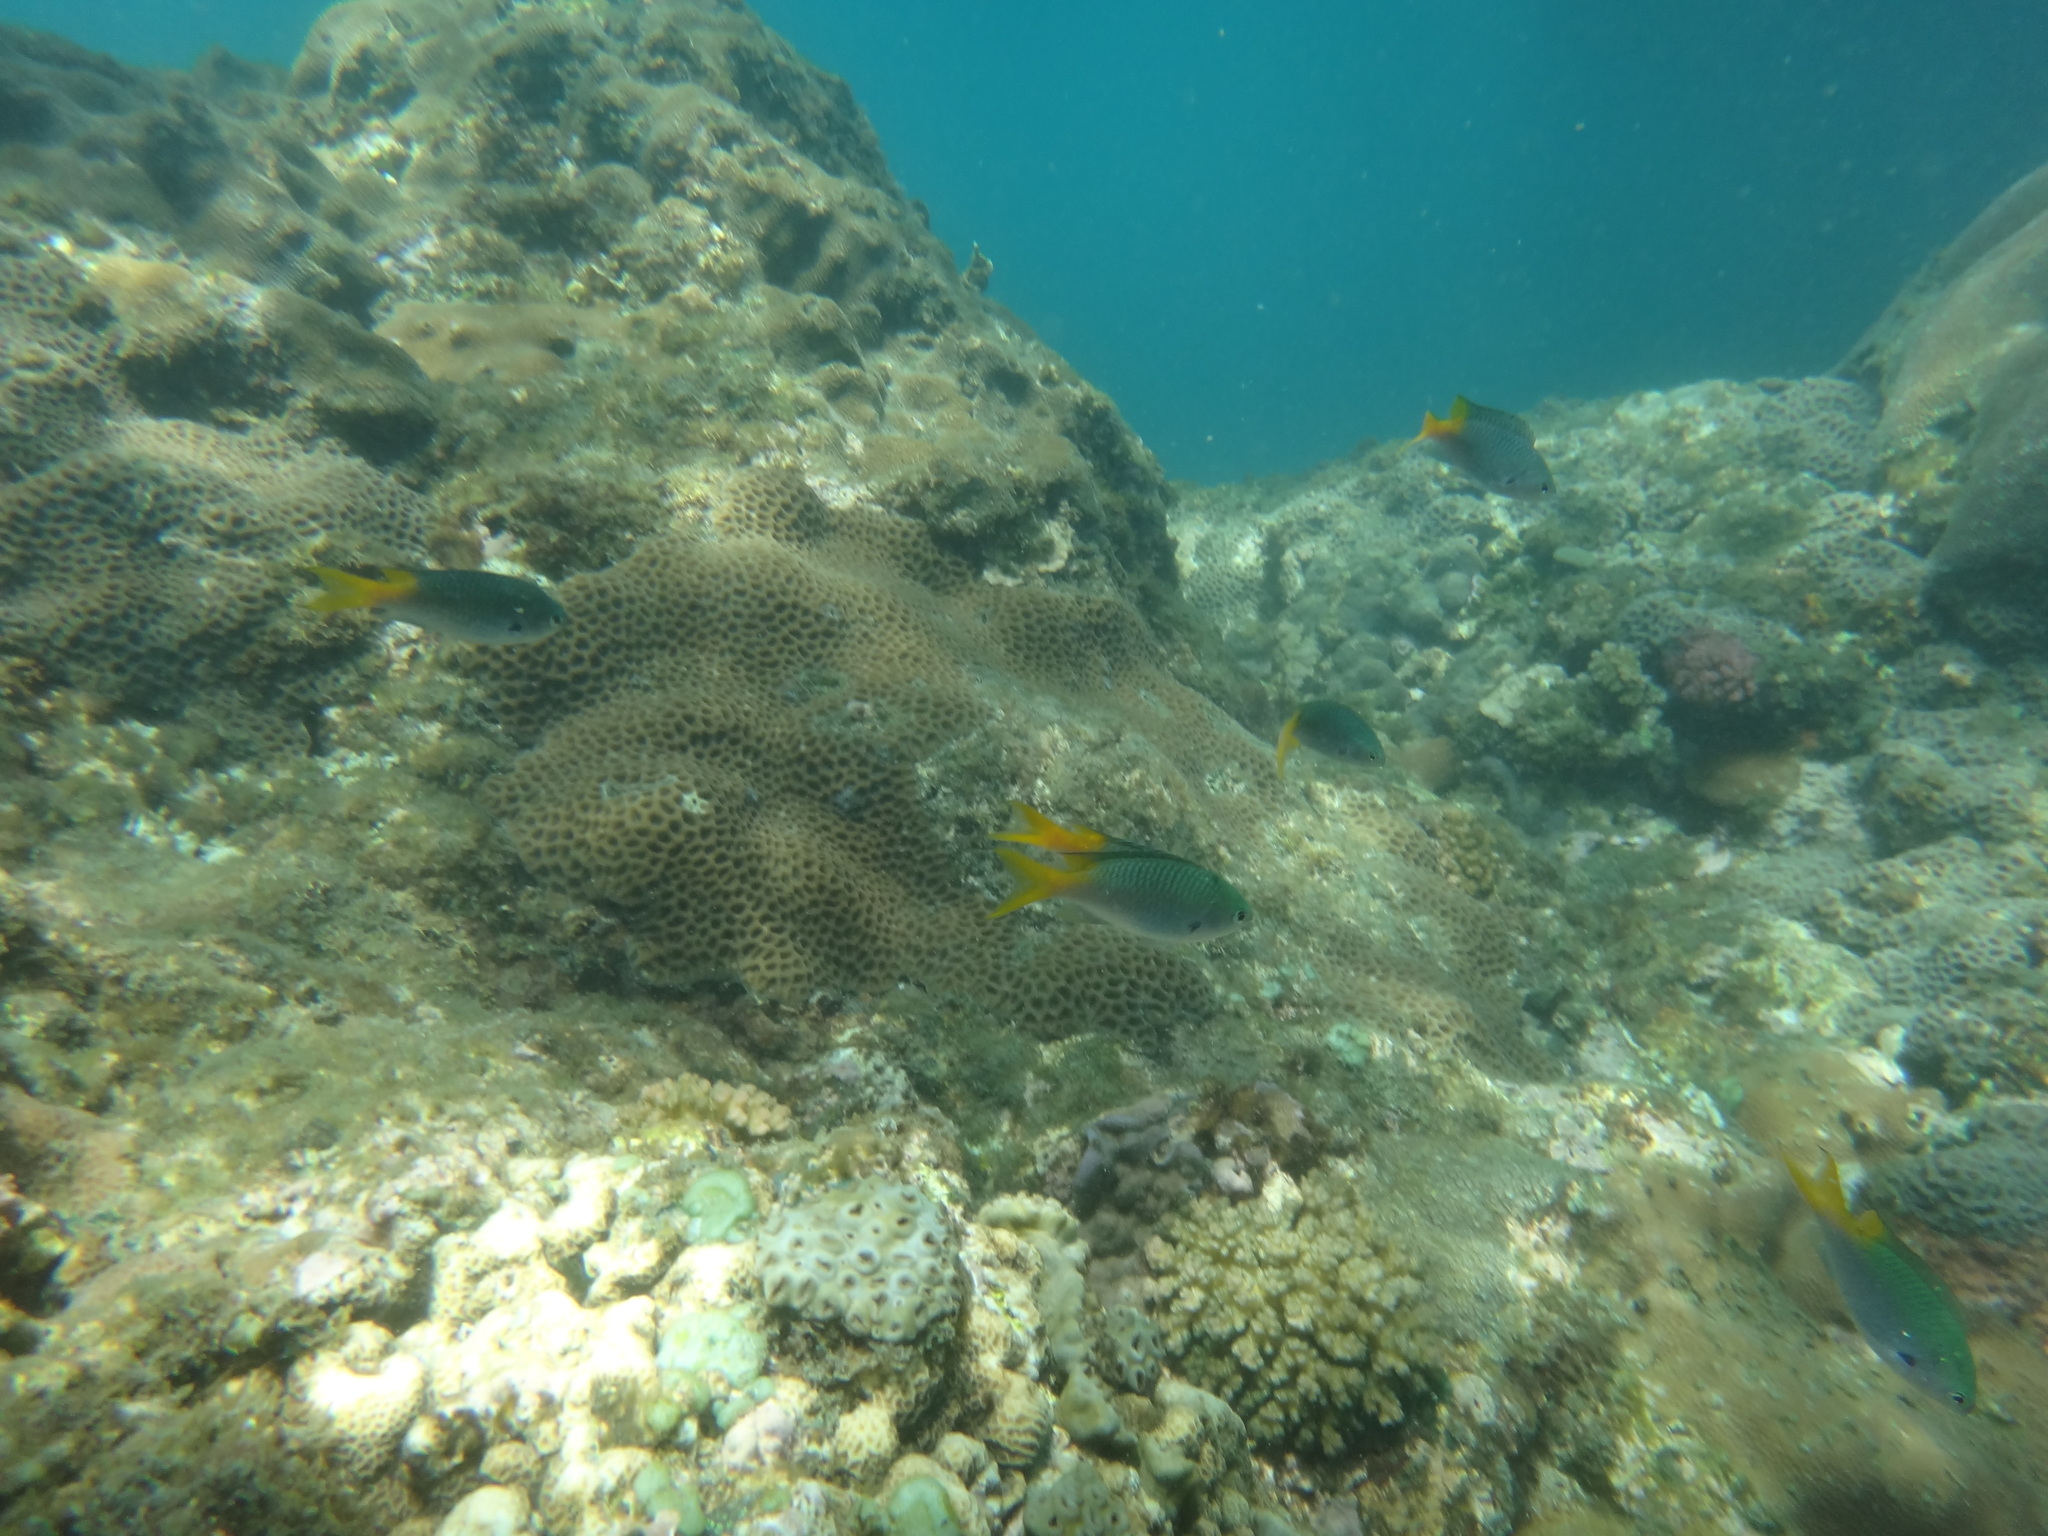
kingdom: Animalia
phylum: Chordata
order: Perciformes
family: Pomacentridae
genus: Neopomacentrus
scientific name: Neopomacentrus azysron
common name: Yellow-tail damsel
